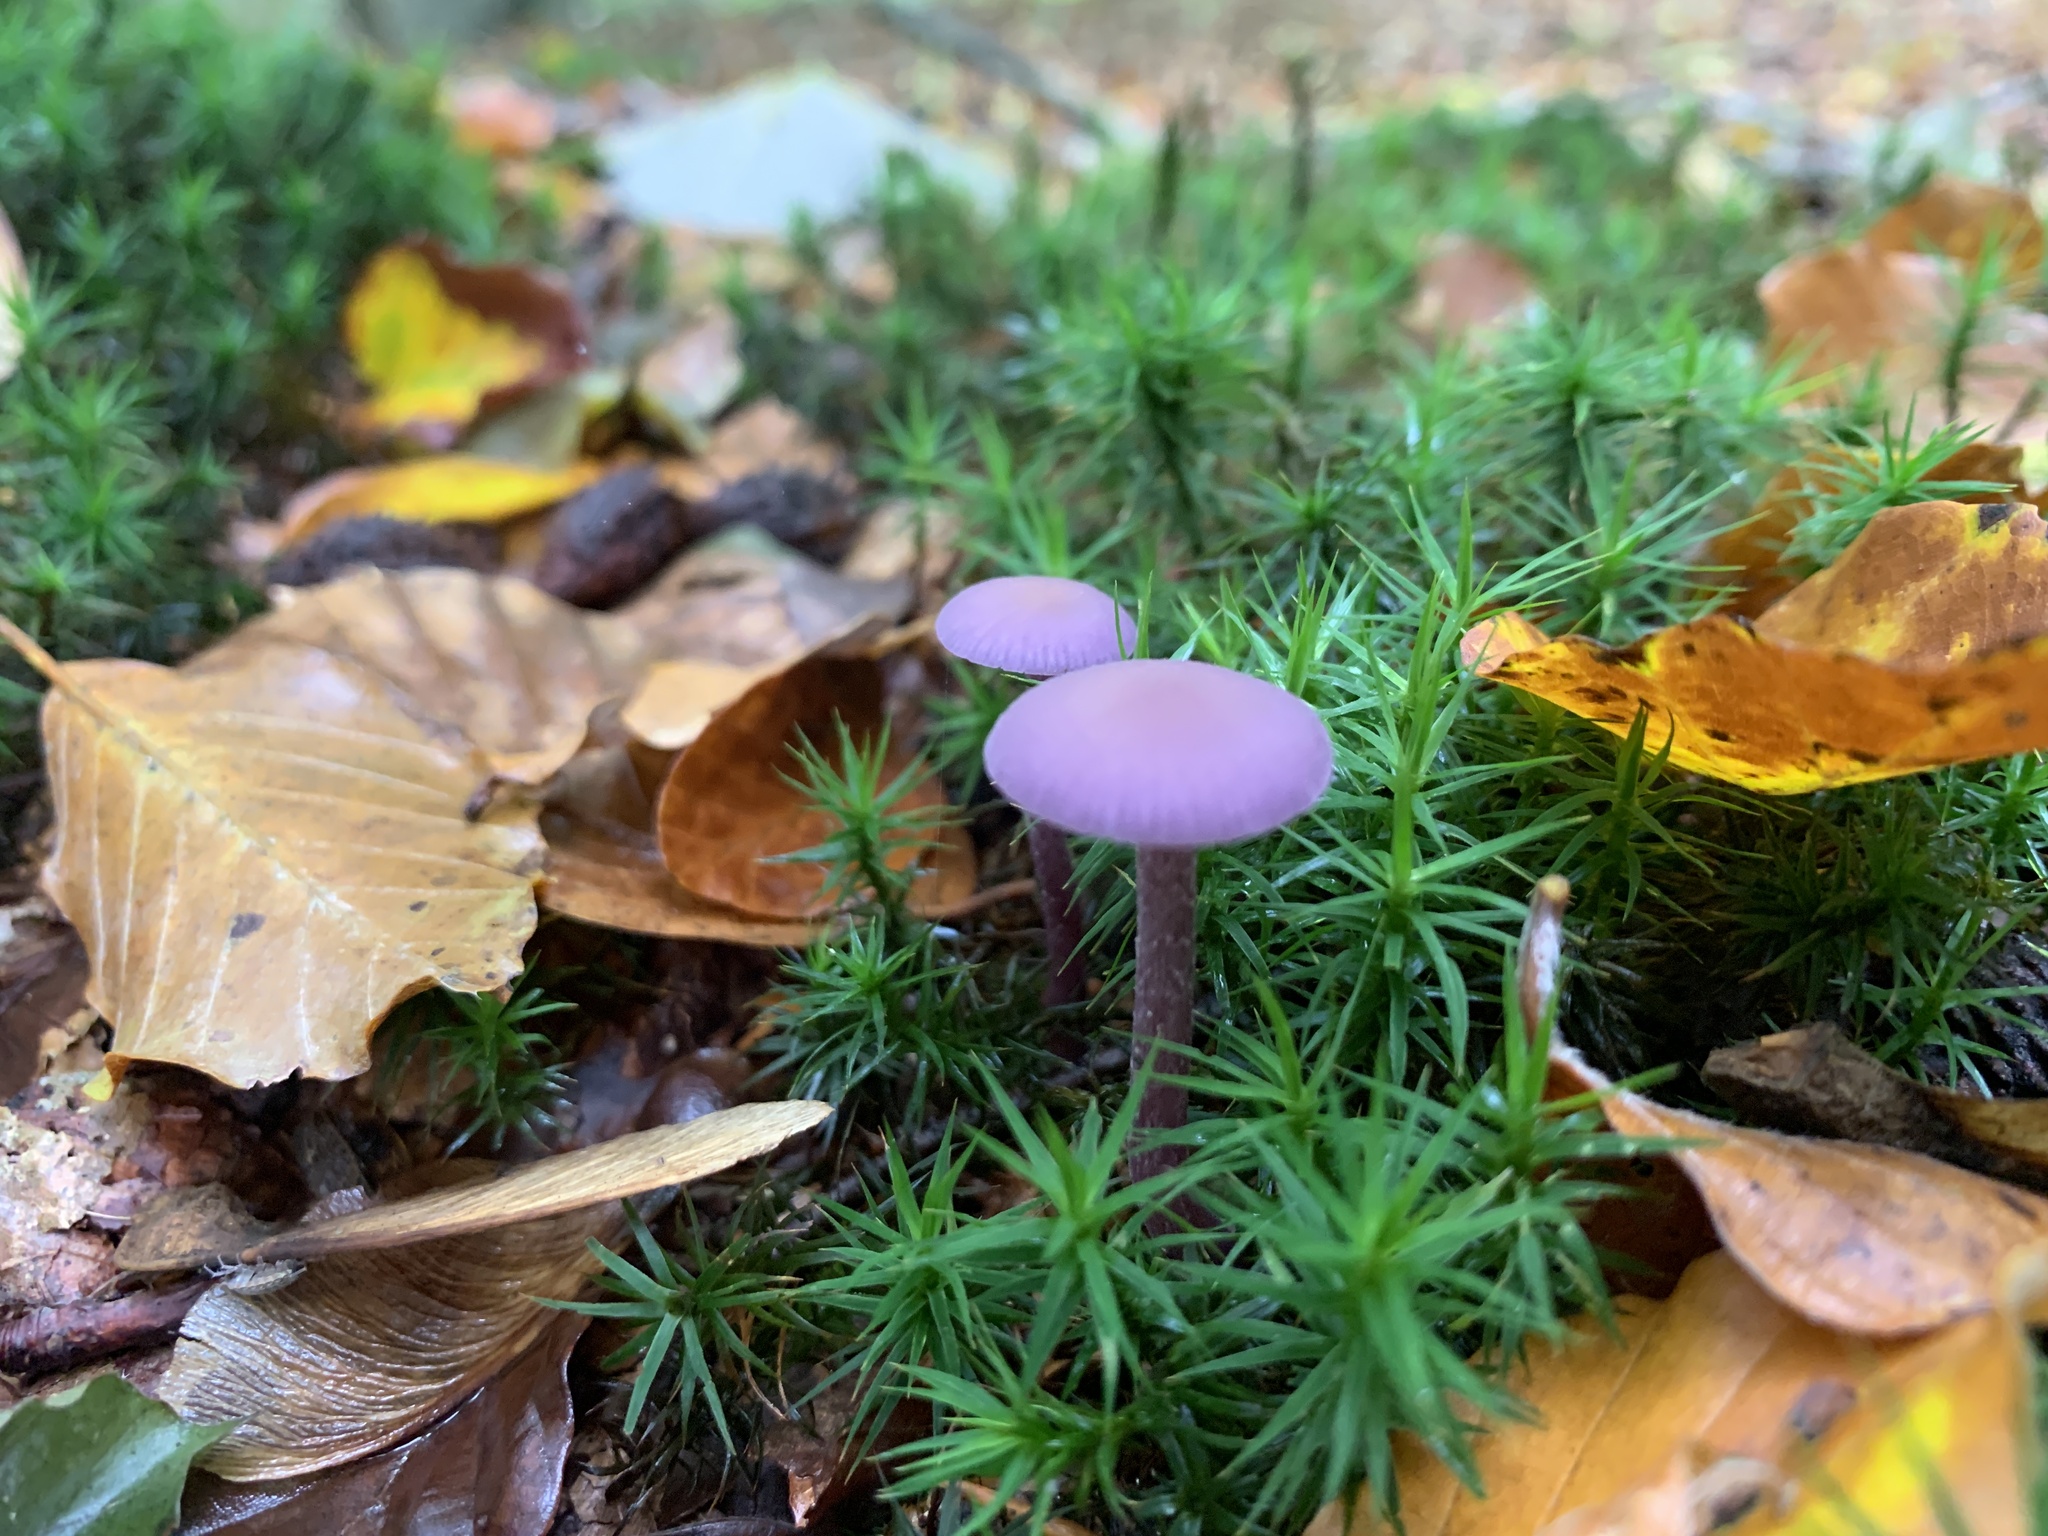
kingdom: Fungi
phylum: Basidiomycota
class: Agaricomycetes
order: Agaricales
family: Hydnangiaceae
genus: Laccaria
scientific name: Laccaria amethystina
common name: Amethyst deceiver
